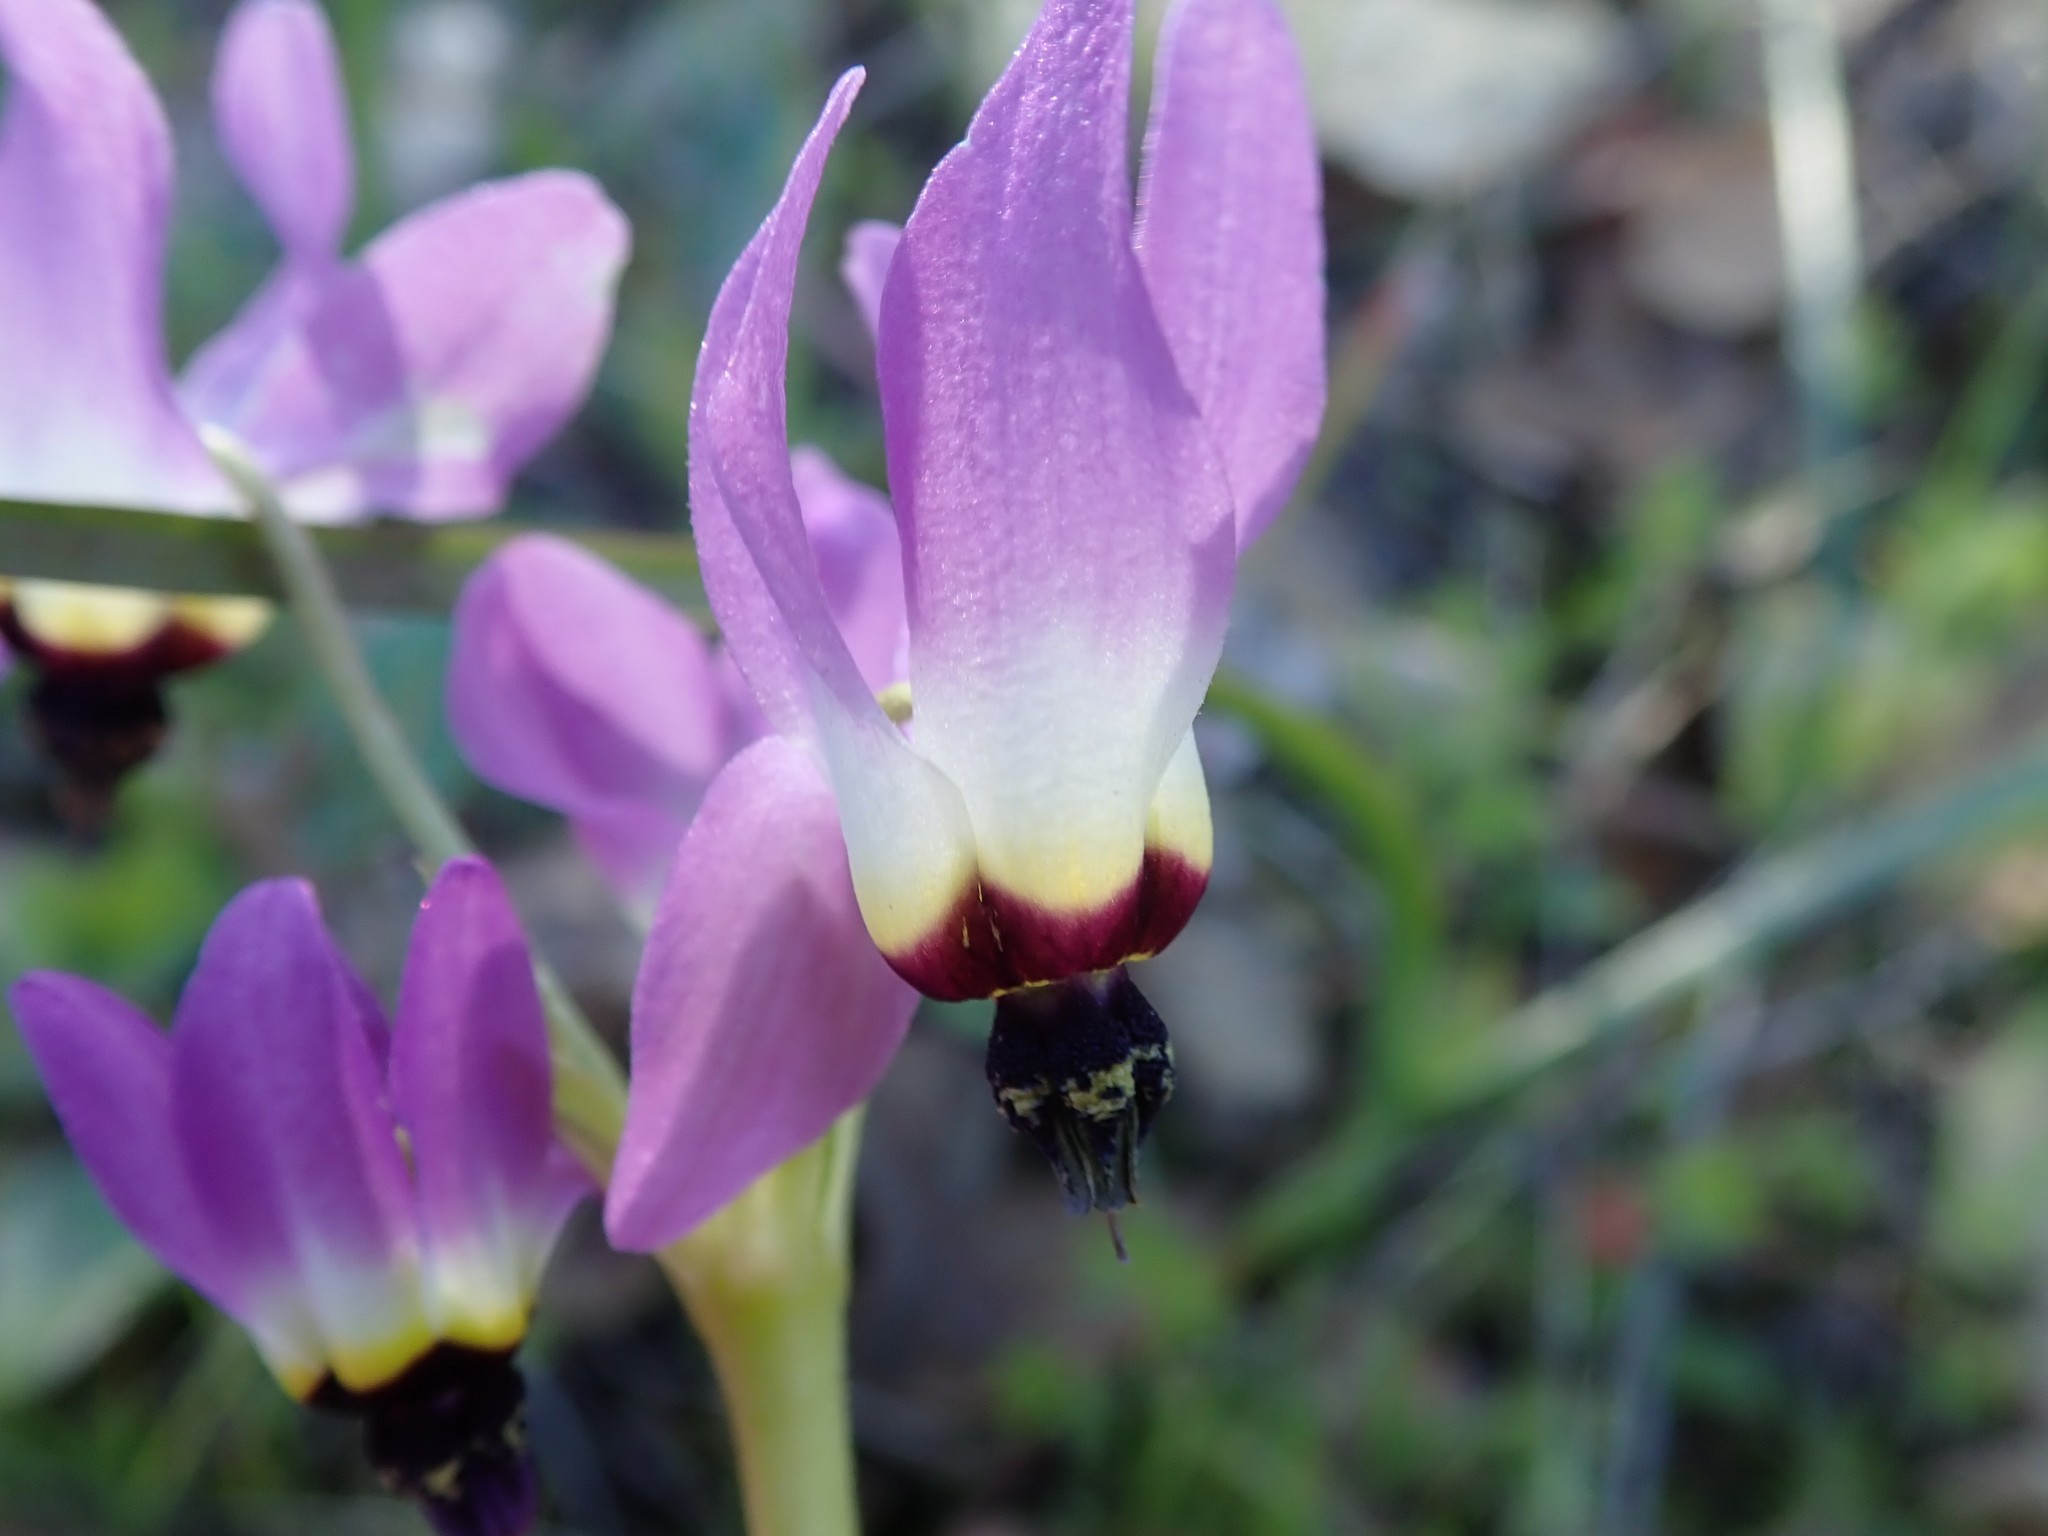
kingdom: Plantae
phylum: Tracheophyta
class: Magnoliopsida
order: Ericales
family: Primulaceae
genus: Dodecatheon
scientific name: Dodecatheon clevelandii
